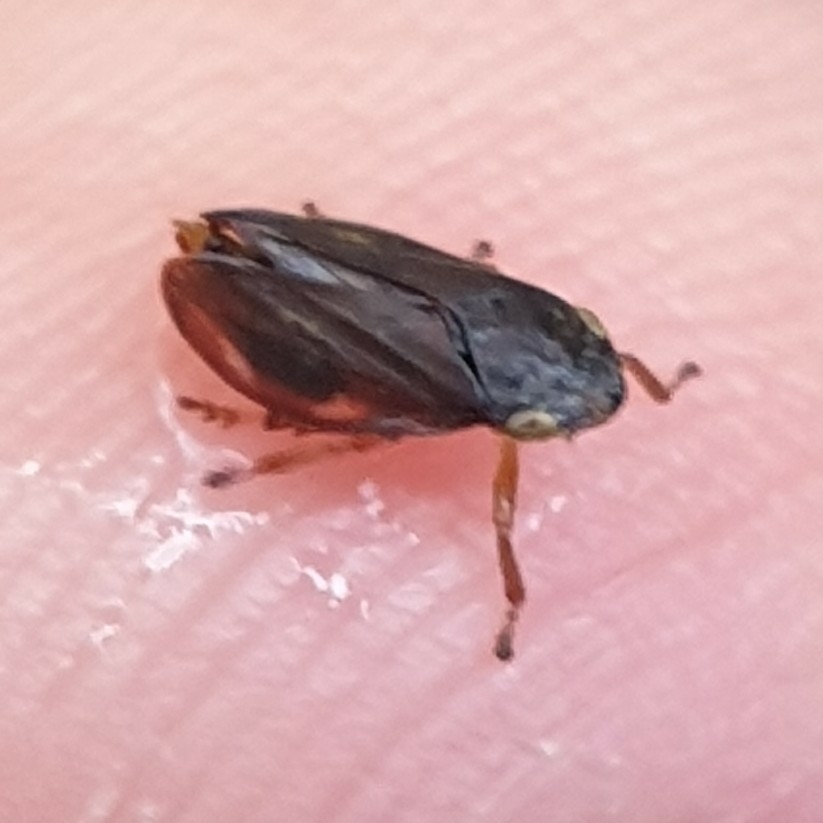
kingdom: Animalia
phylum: Arthropoda
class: Insecta
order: Hemiptera
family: Aphrophoridae
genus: Philaenus
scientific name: Philaenus spumarius
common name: Meadow spittlebug
